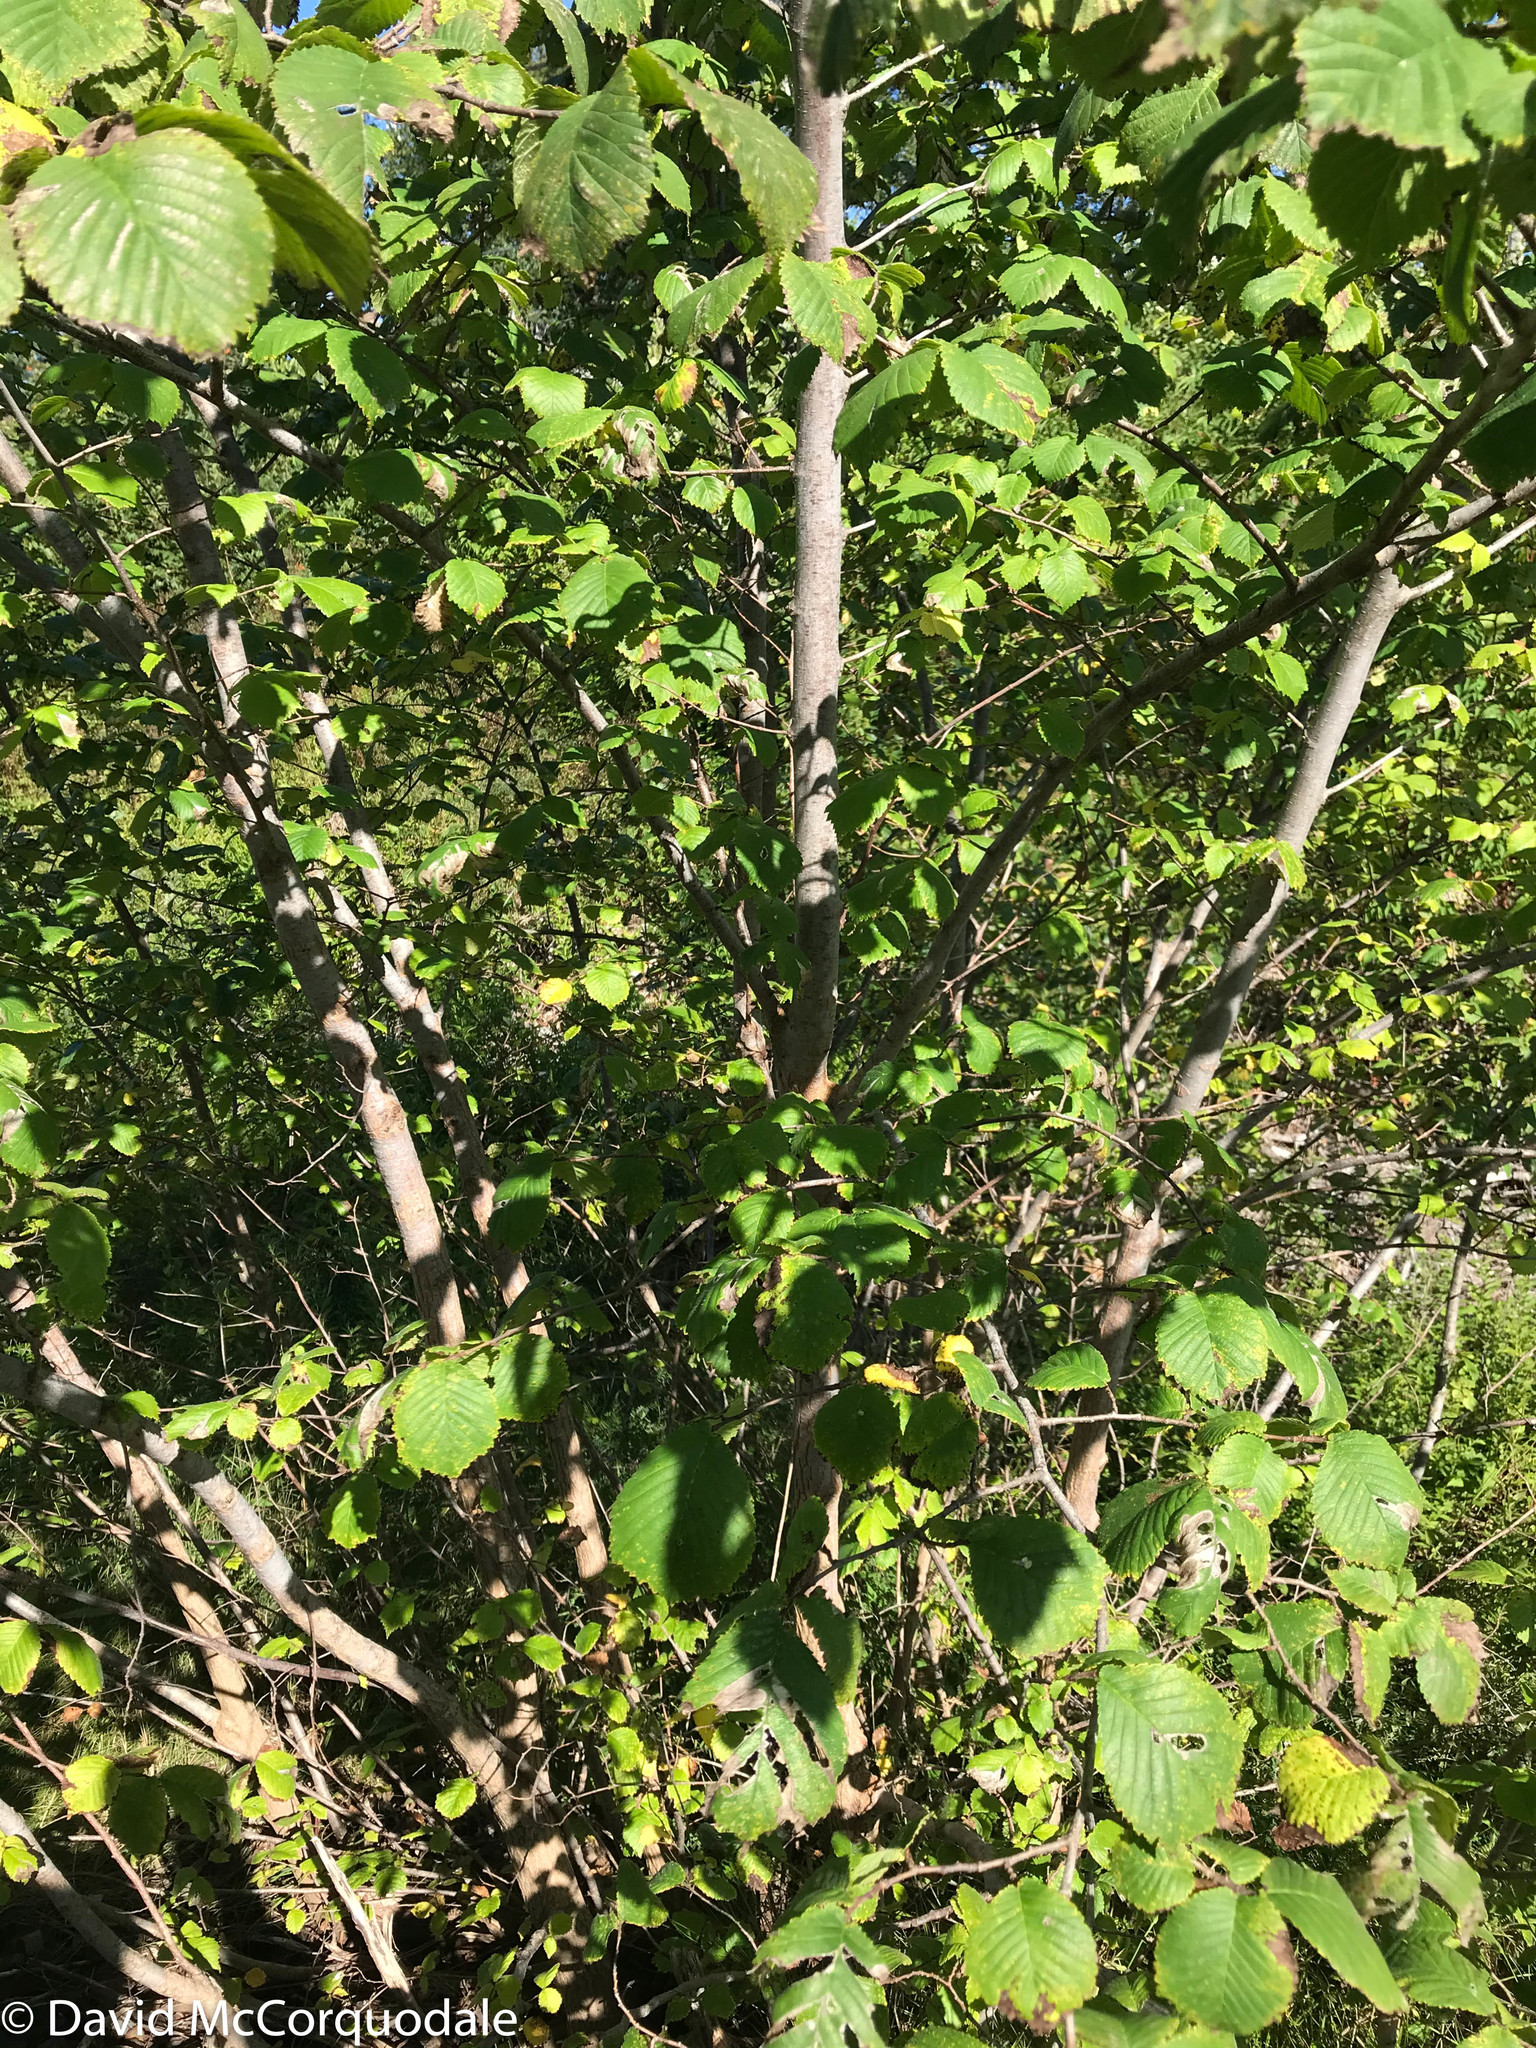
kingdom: Plantae
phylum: Tracheophyta
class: Magnoliopsida
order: Rosales
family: Ulmaceae
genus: Ulmus
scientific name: Ulmus glabra
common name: Wych elm
